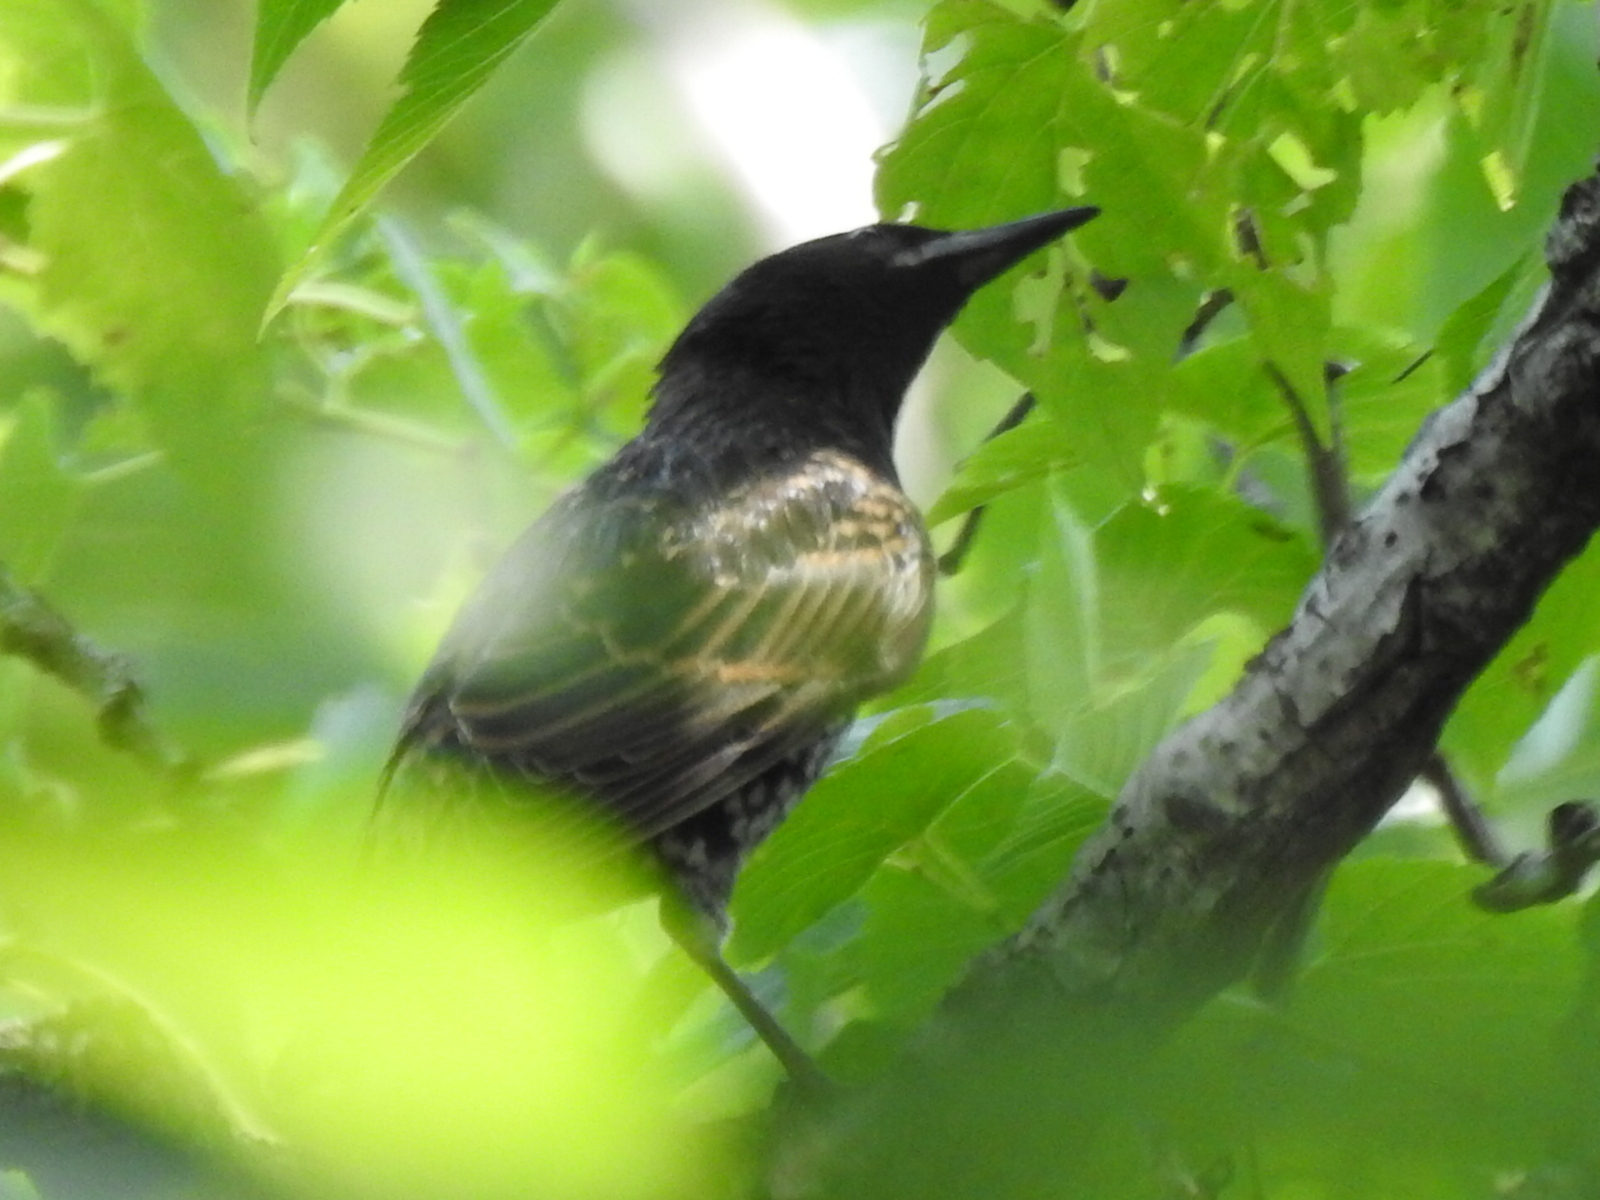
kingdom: Animalia
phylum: Chordata
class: Aves
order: Passeriformes
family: Sturnidae
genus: Sturnus
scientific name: Sturnus vulgaris
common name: Common starling
